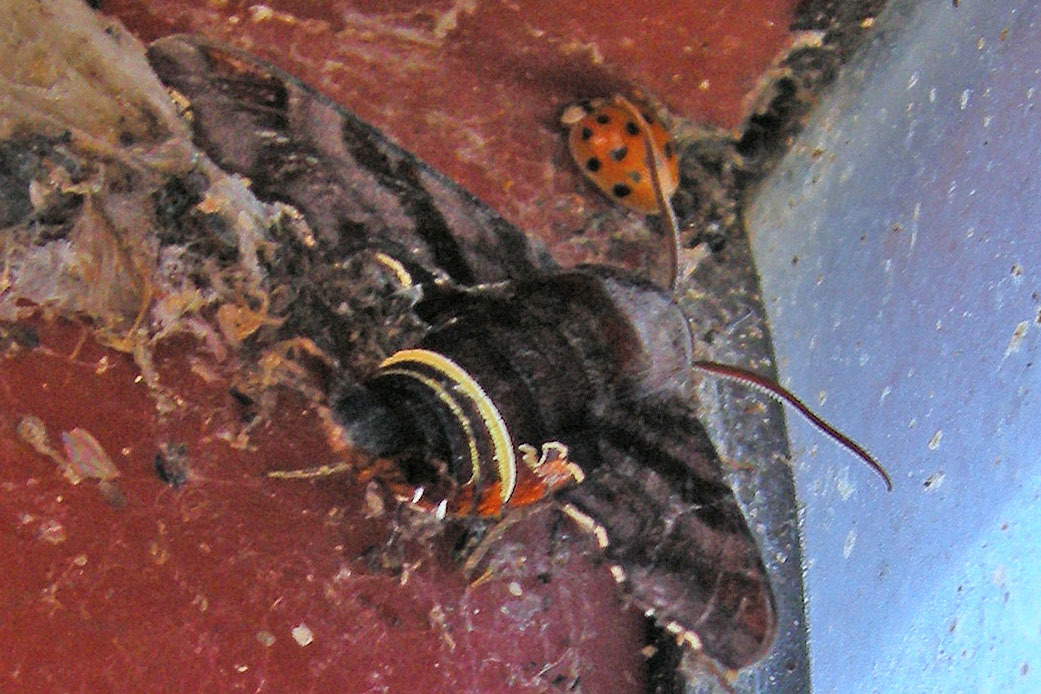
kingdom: Animalia
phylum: Arthropoda
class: Insecta
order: Lepidoptera
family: Sphingidae
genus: Amphion
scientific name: Amphion floridensis
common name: Nessus sphinx
